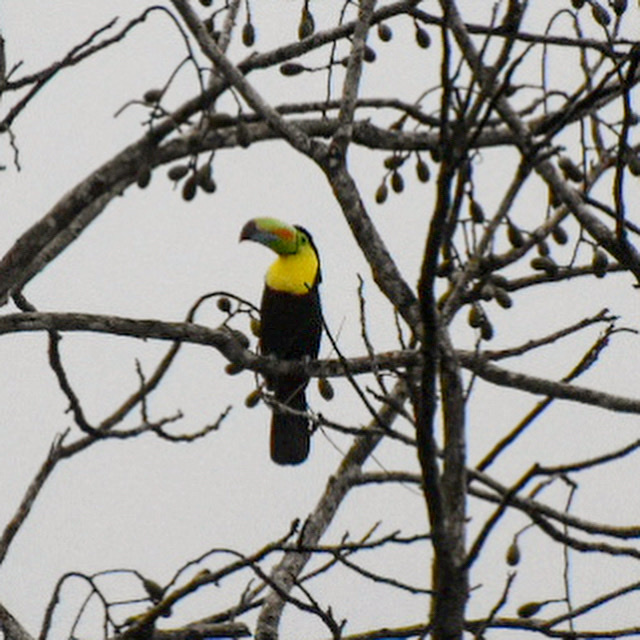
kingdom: Animalia
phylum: Chordata
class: Aves
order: Piciformes
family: Ramphastidae
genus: Ramphastos
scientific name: Ramphastos sulfuratus
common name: Keel-billed toucan
